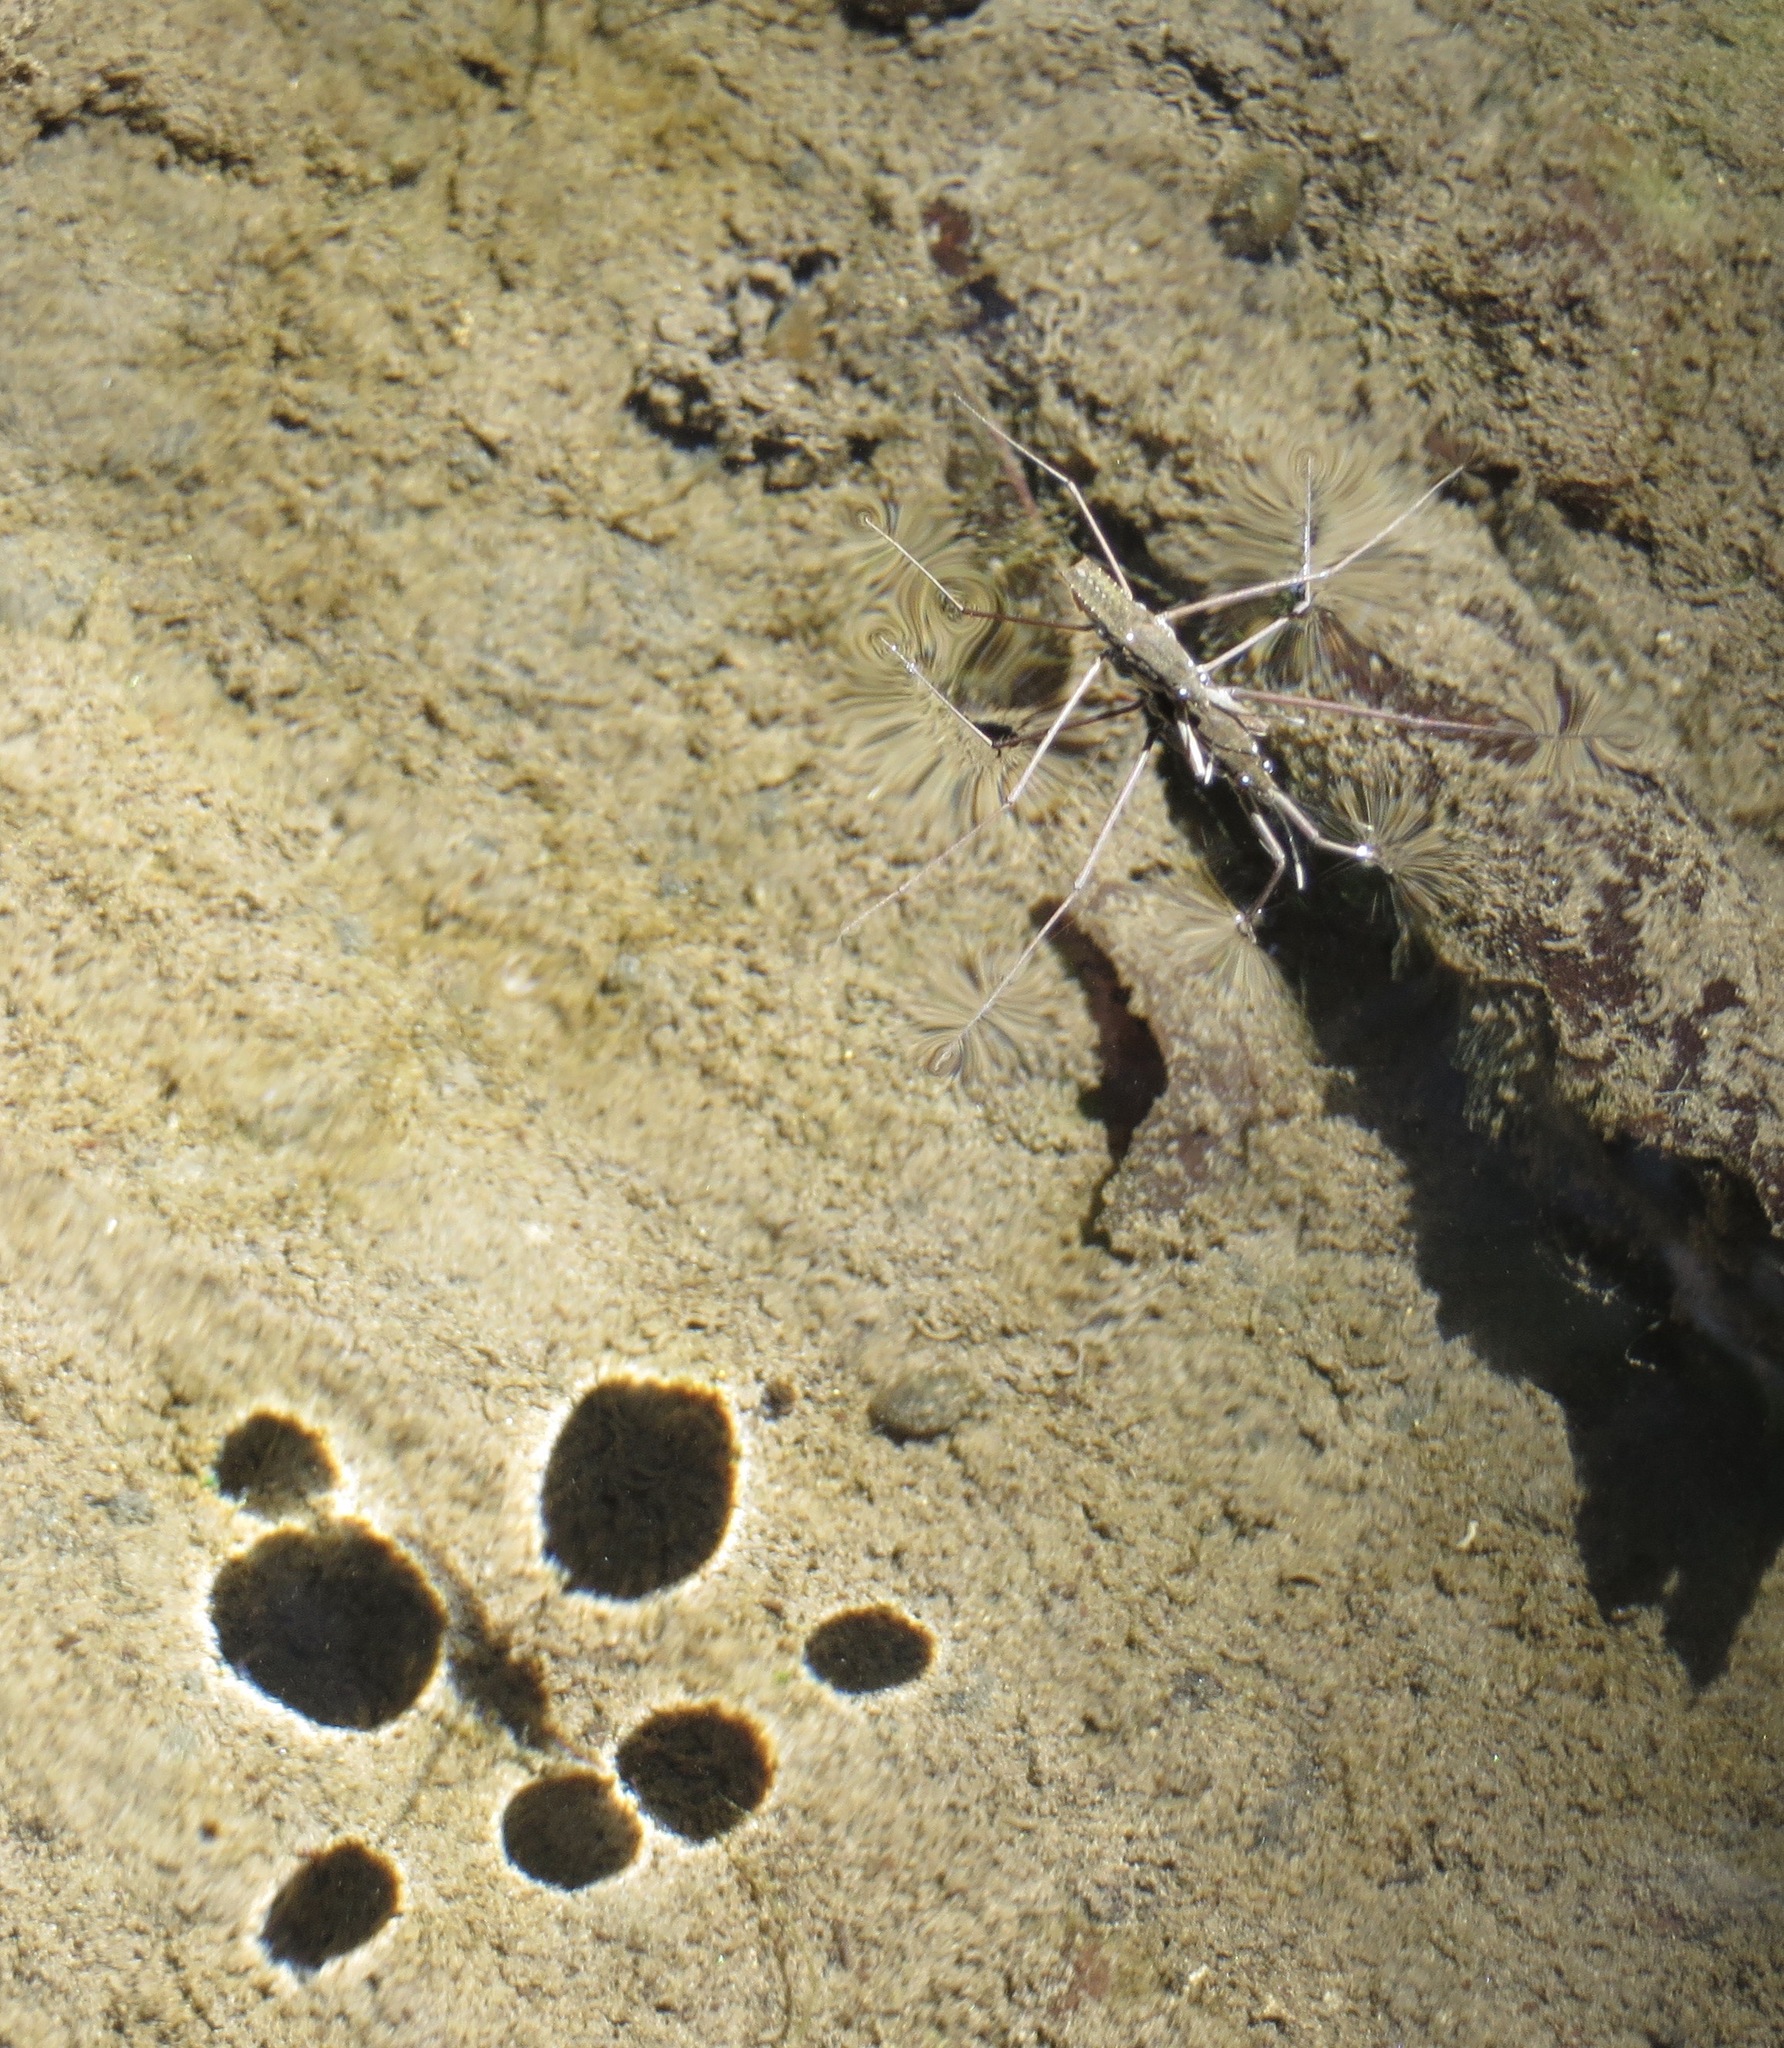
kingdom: Animalia
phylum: Arthropoda
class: Insecta
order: Hemiptera
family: Gerridae
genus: Aquarius
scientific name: Aquarius remigis
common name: Common water strider
